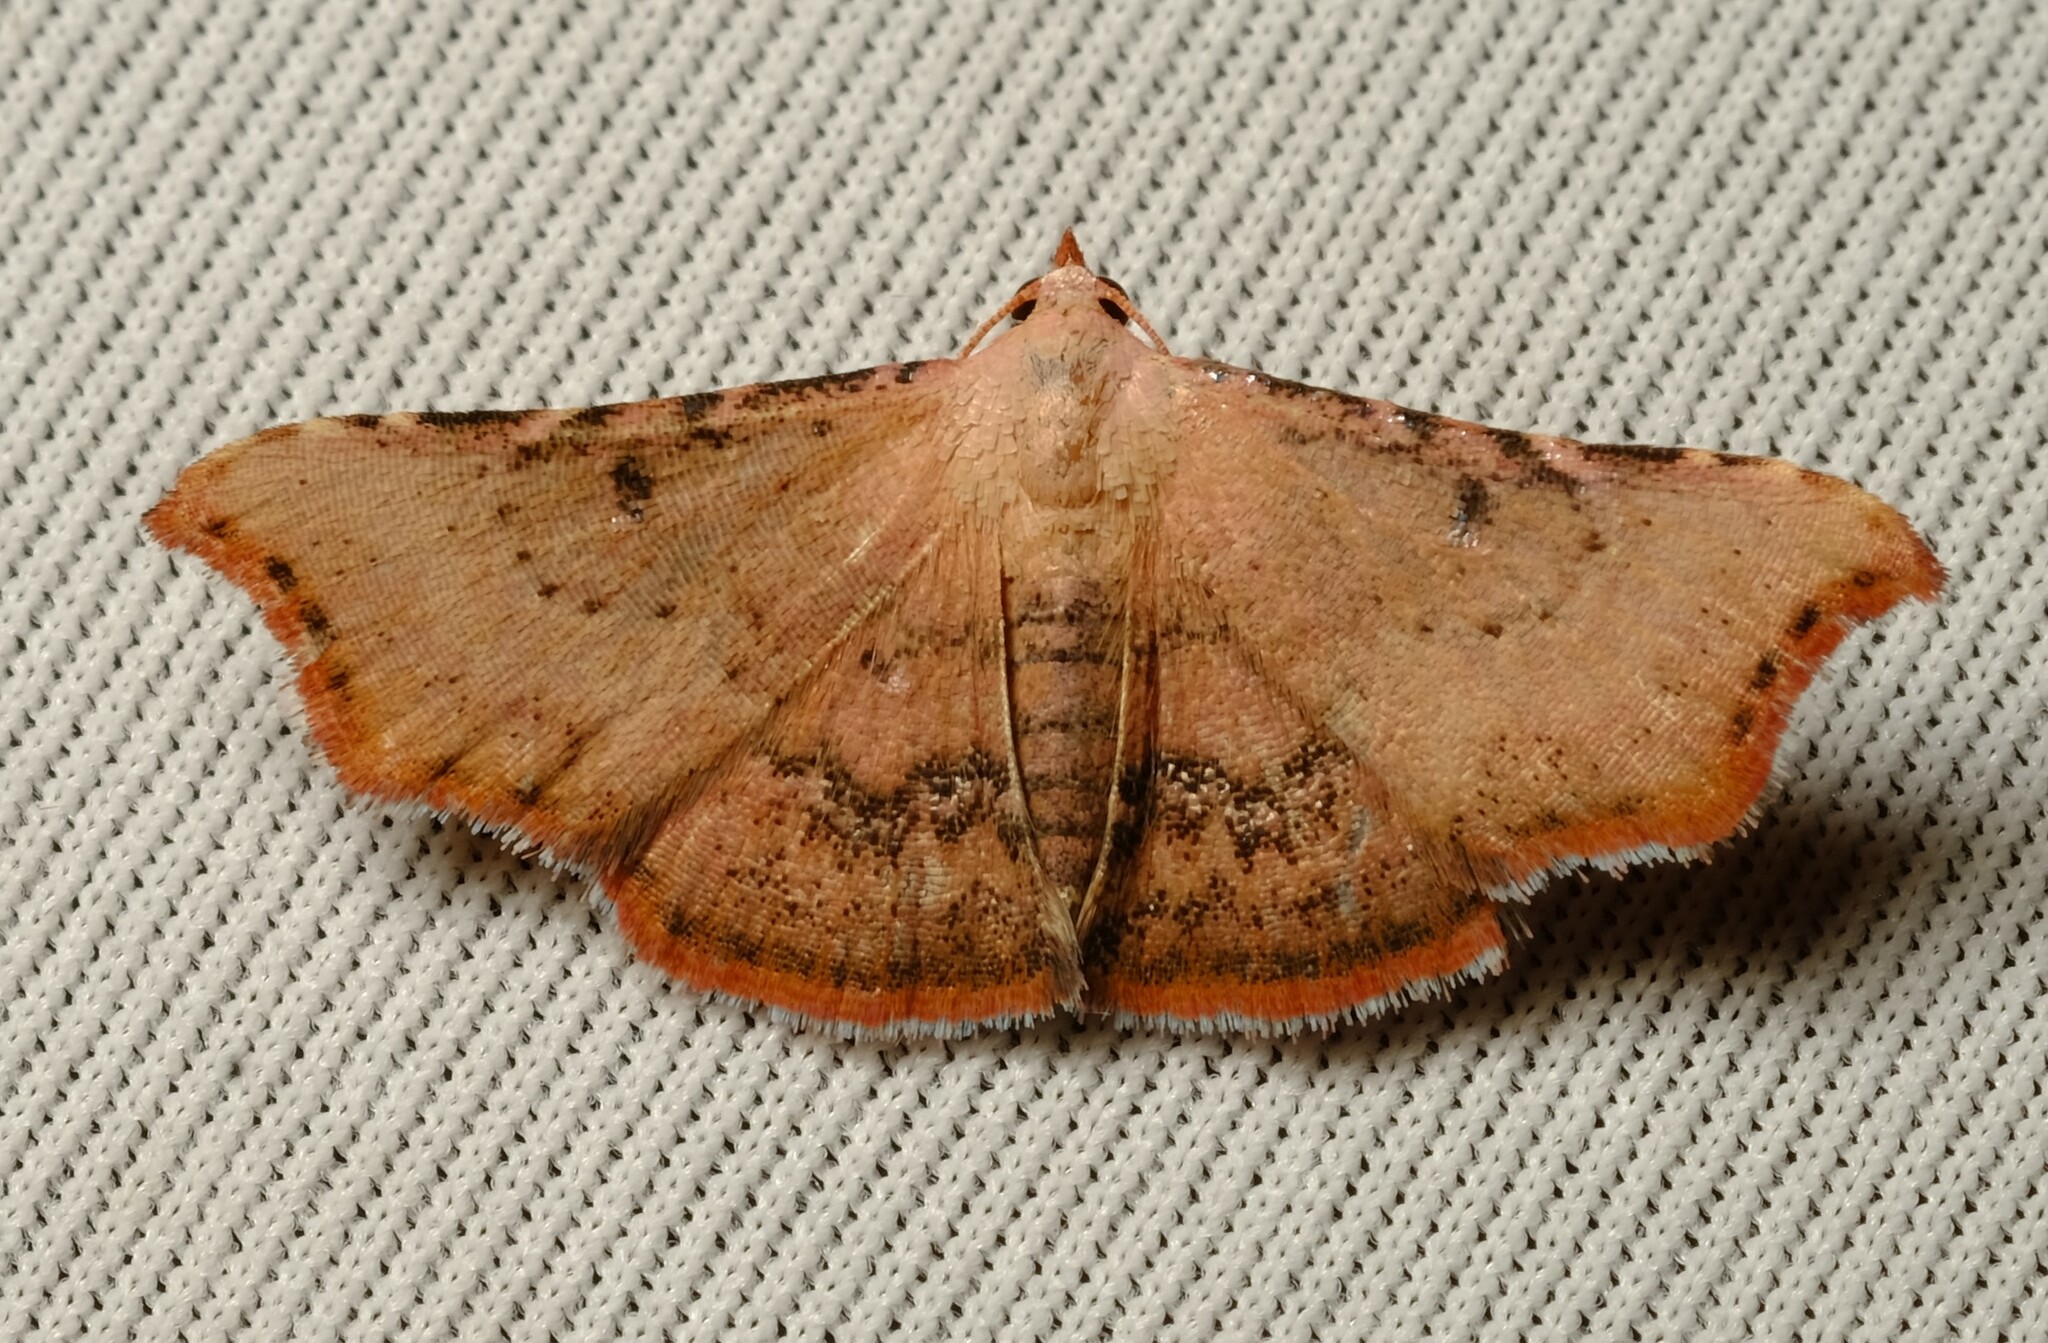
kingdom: Animalia
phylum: Arthropoda
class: Insecta
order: Lepidoptera
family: Erebidae
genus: Corgatha
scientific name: Corgatha dipyra
